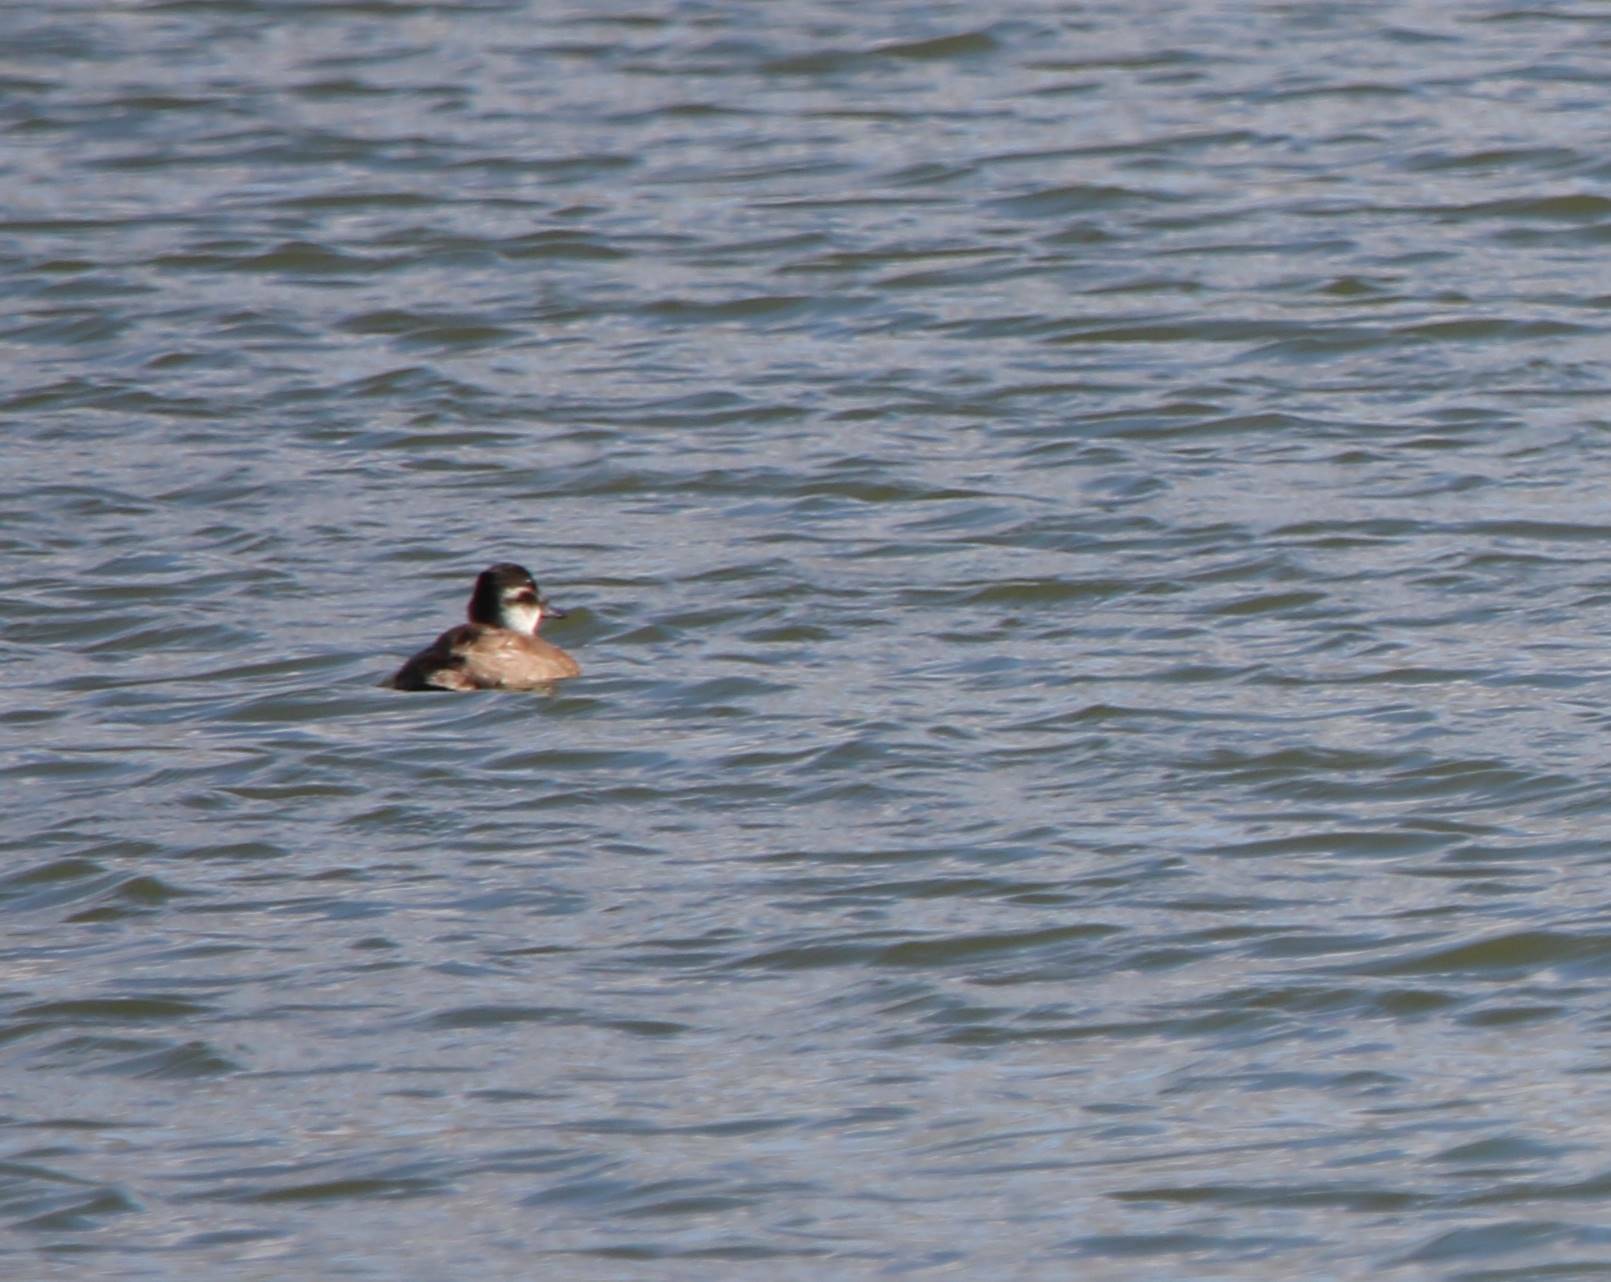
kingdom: Animalia
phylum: Chordata
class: Aves
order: Anseriformes
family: Anatidae
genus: Oxyura
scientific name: Oxyura leucocephala
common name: White-headed duck
